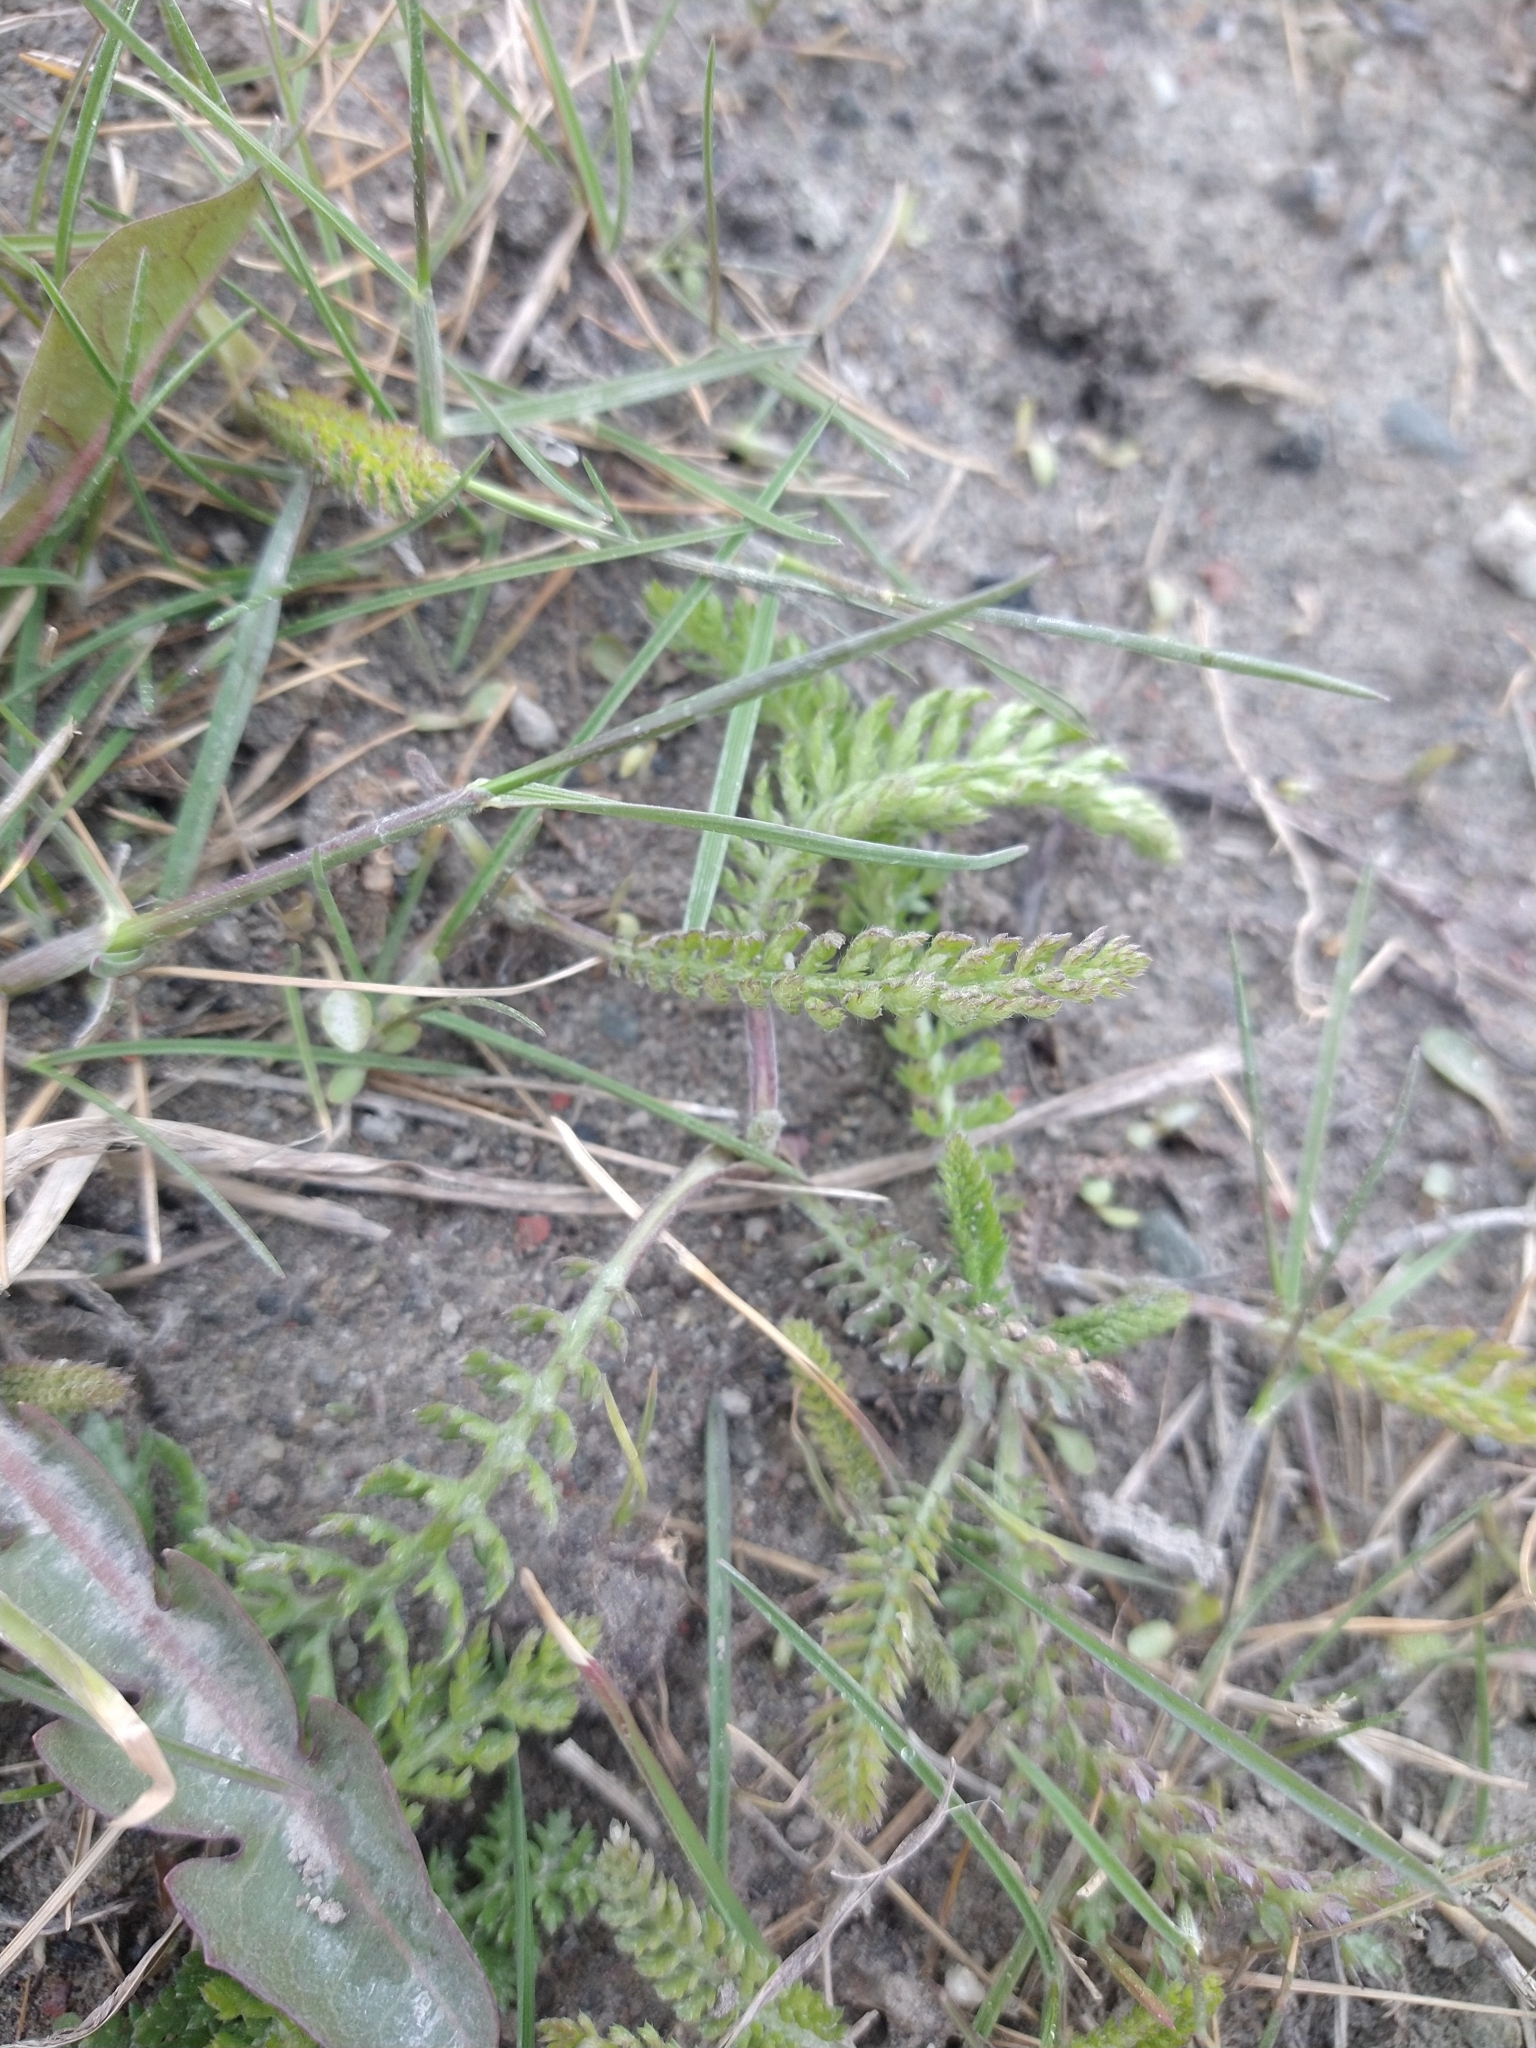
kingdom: Plantae
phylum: Tracheophyta
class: Magnoliopsida
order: Asterales
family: Asteraceae
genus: Achillea
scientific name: Achillea millefolium
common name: Yarrow
